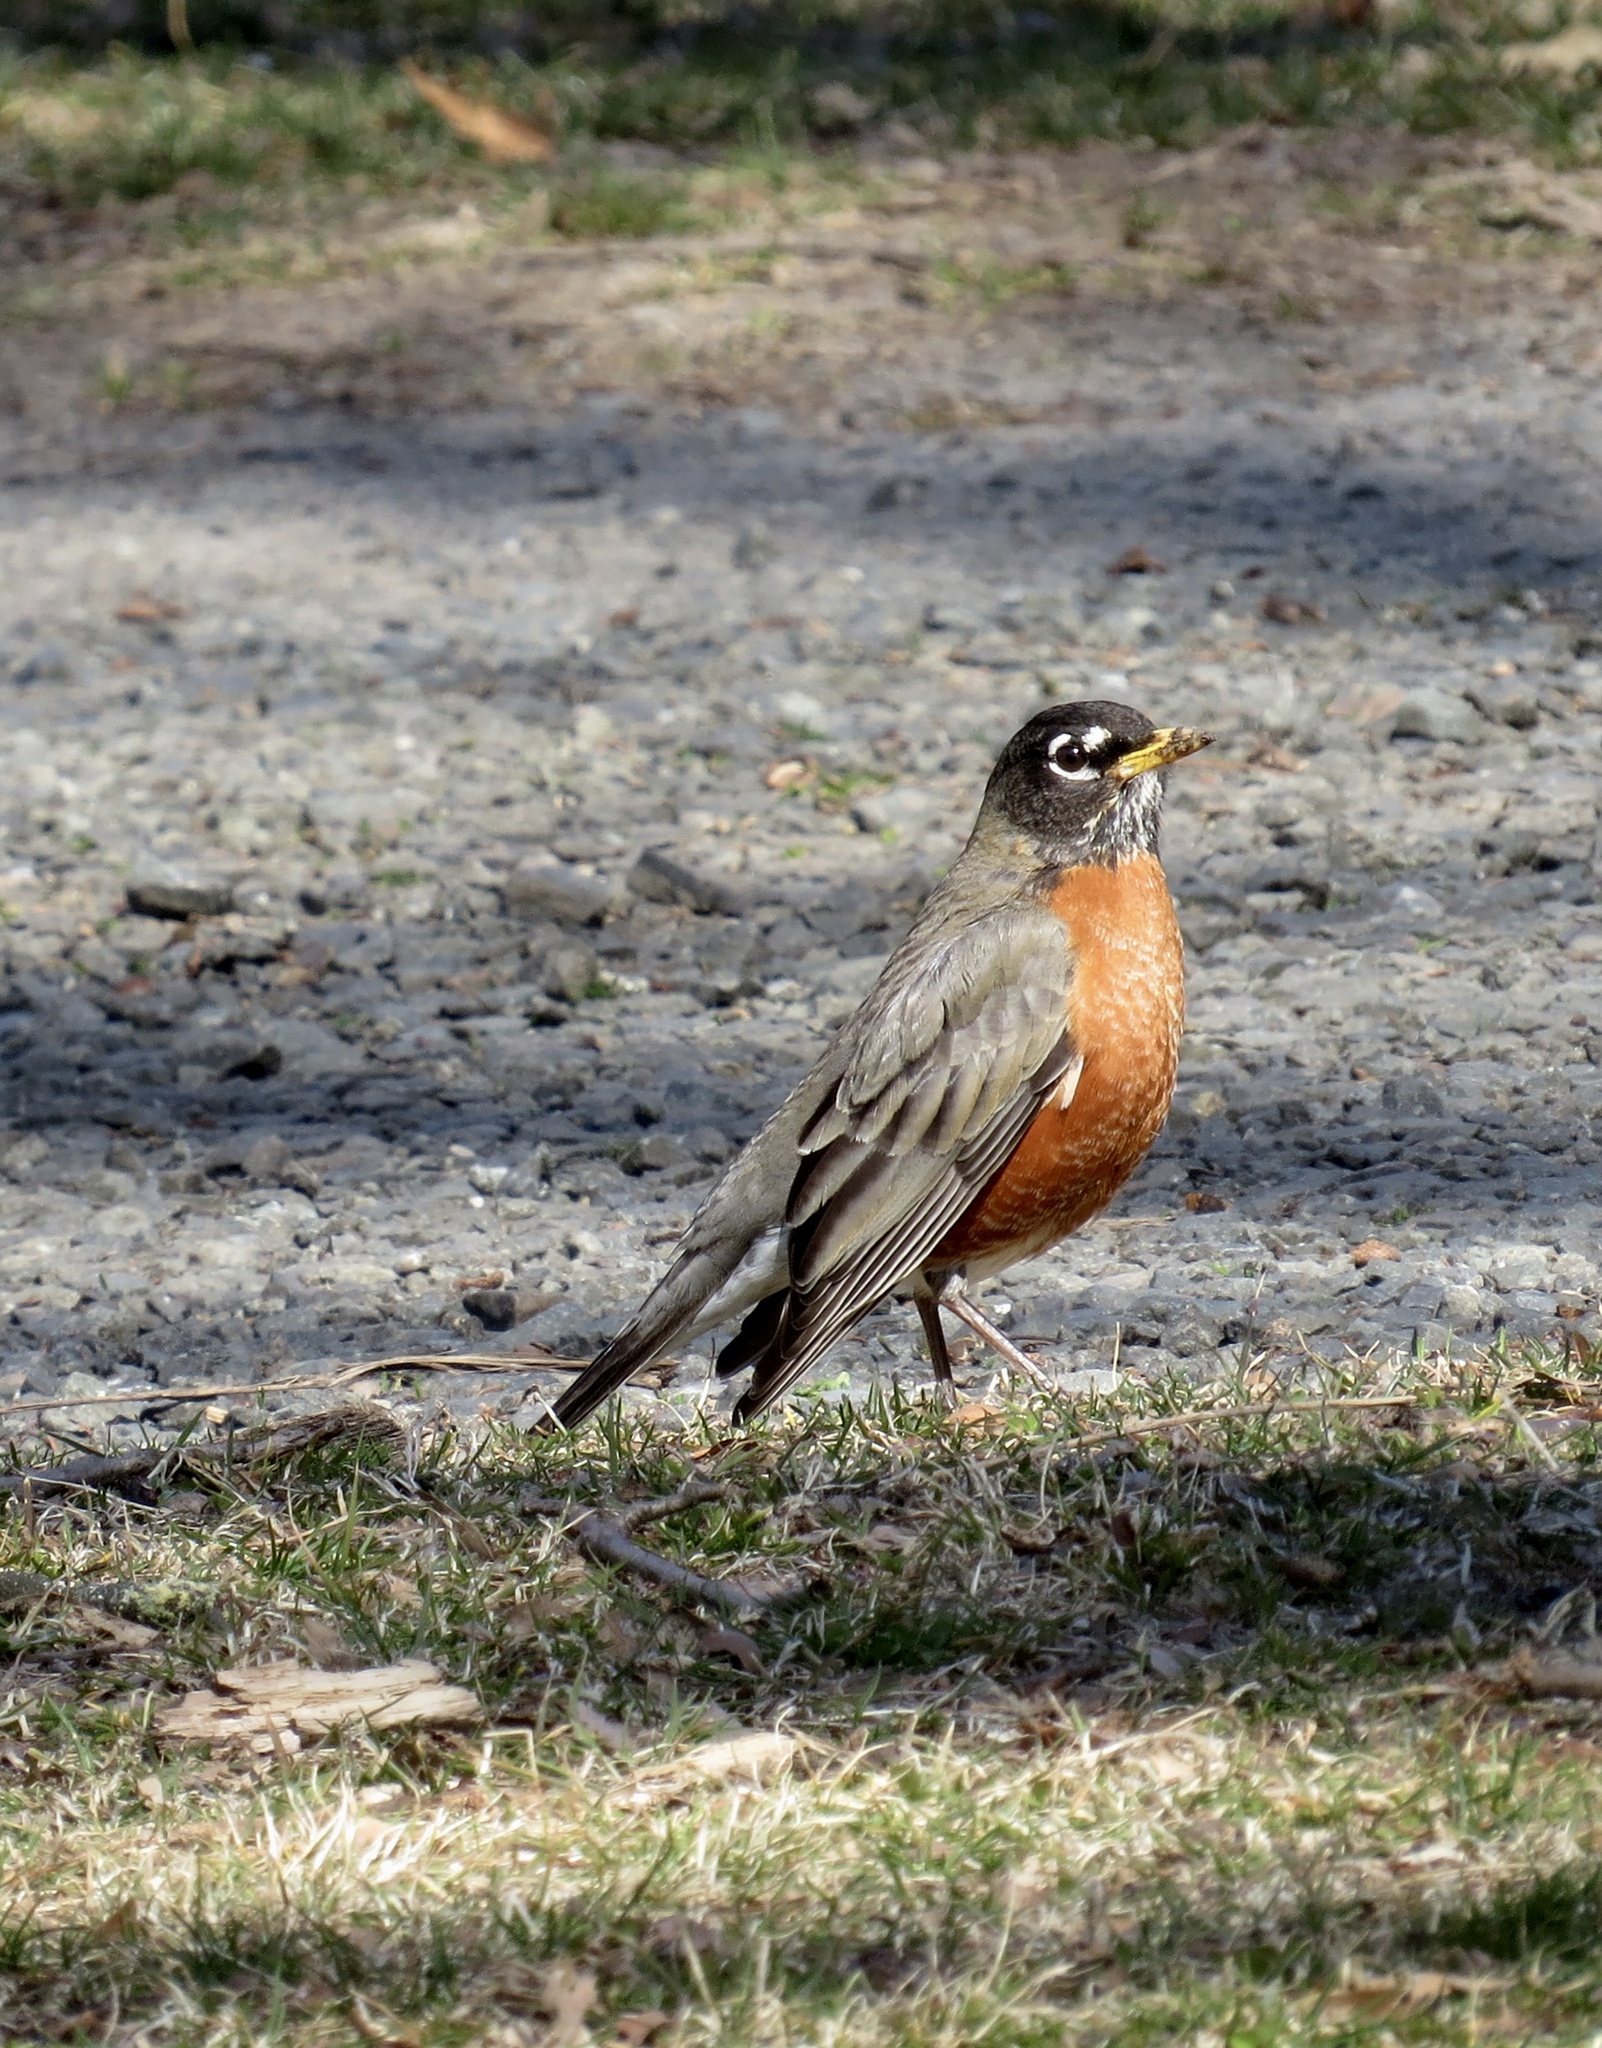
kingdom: Animalia
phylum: Chordata
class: Aves
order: Passeriformes
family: Turdidae
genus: Turdus
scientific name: Turdus migratorius
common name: American robin
